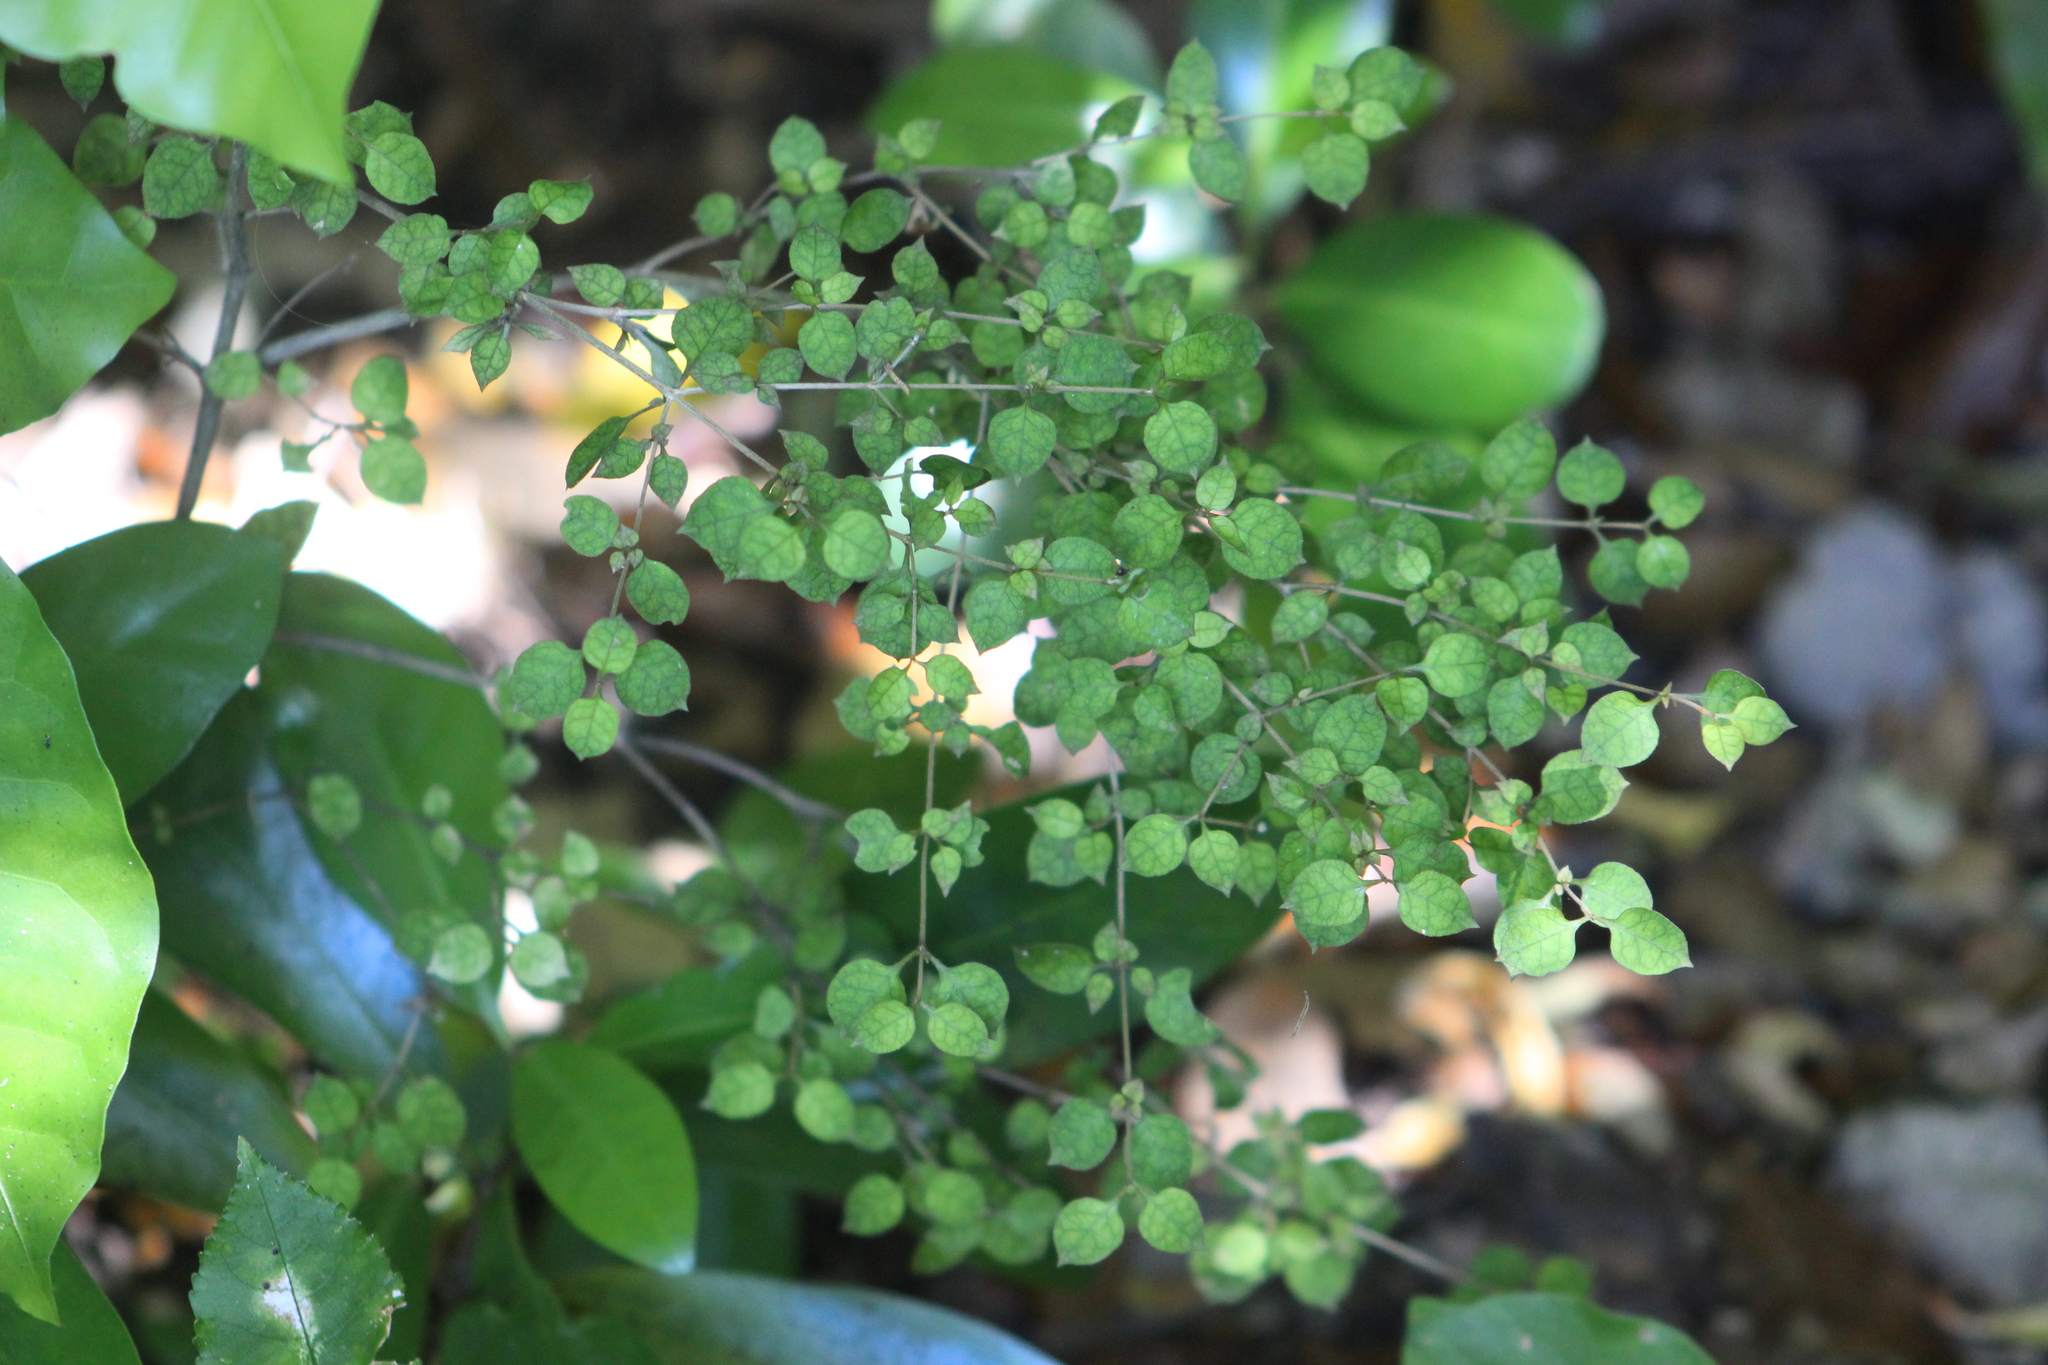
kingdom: Plantae
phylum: Tracheophyta
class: Magnoliopsida
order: Gentianales
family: Rubiaceae
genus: Coprosma
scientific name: Coprosma areolata
